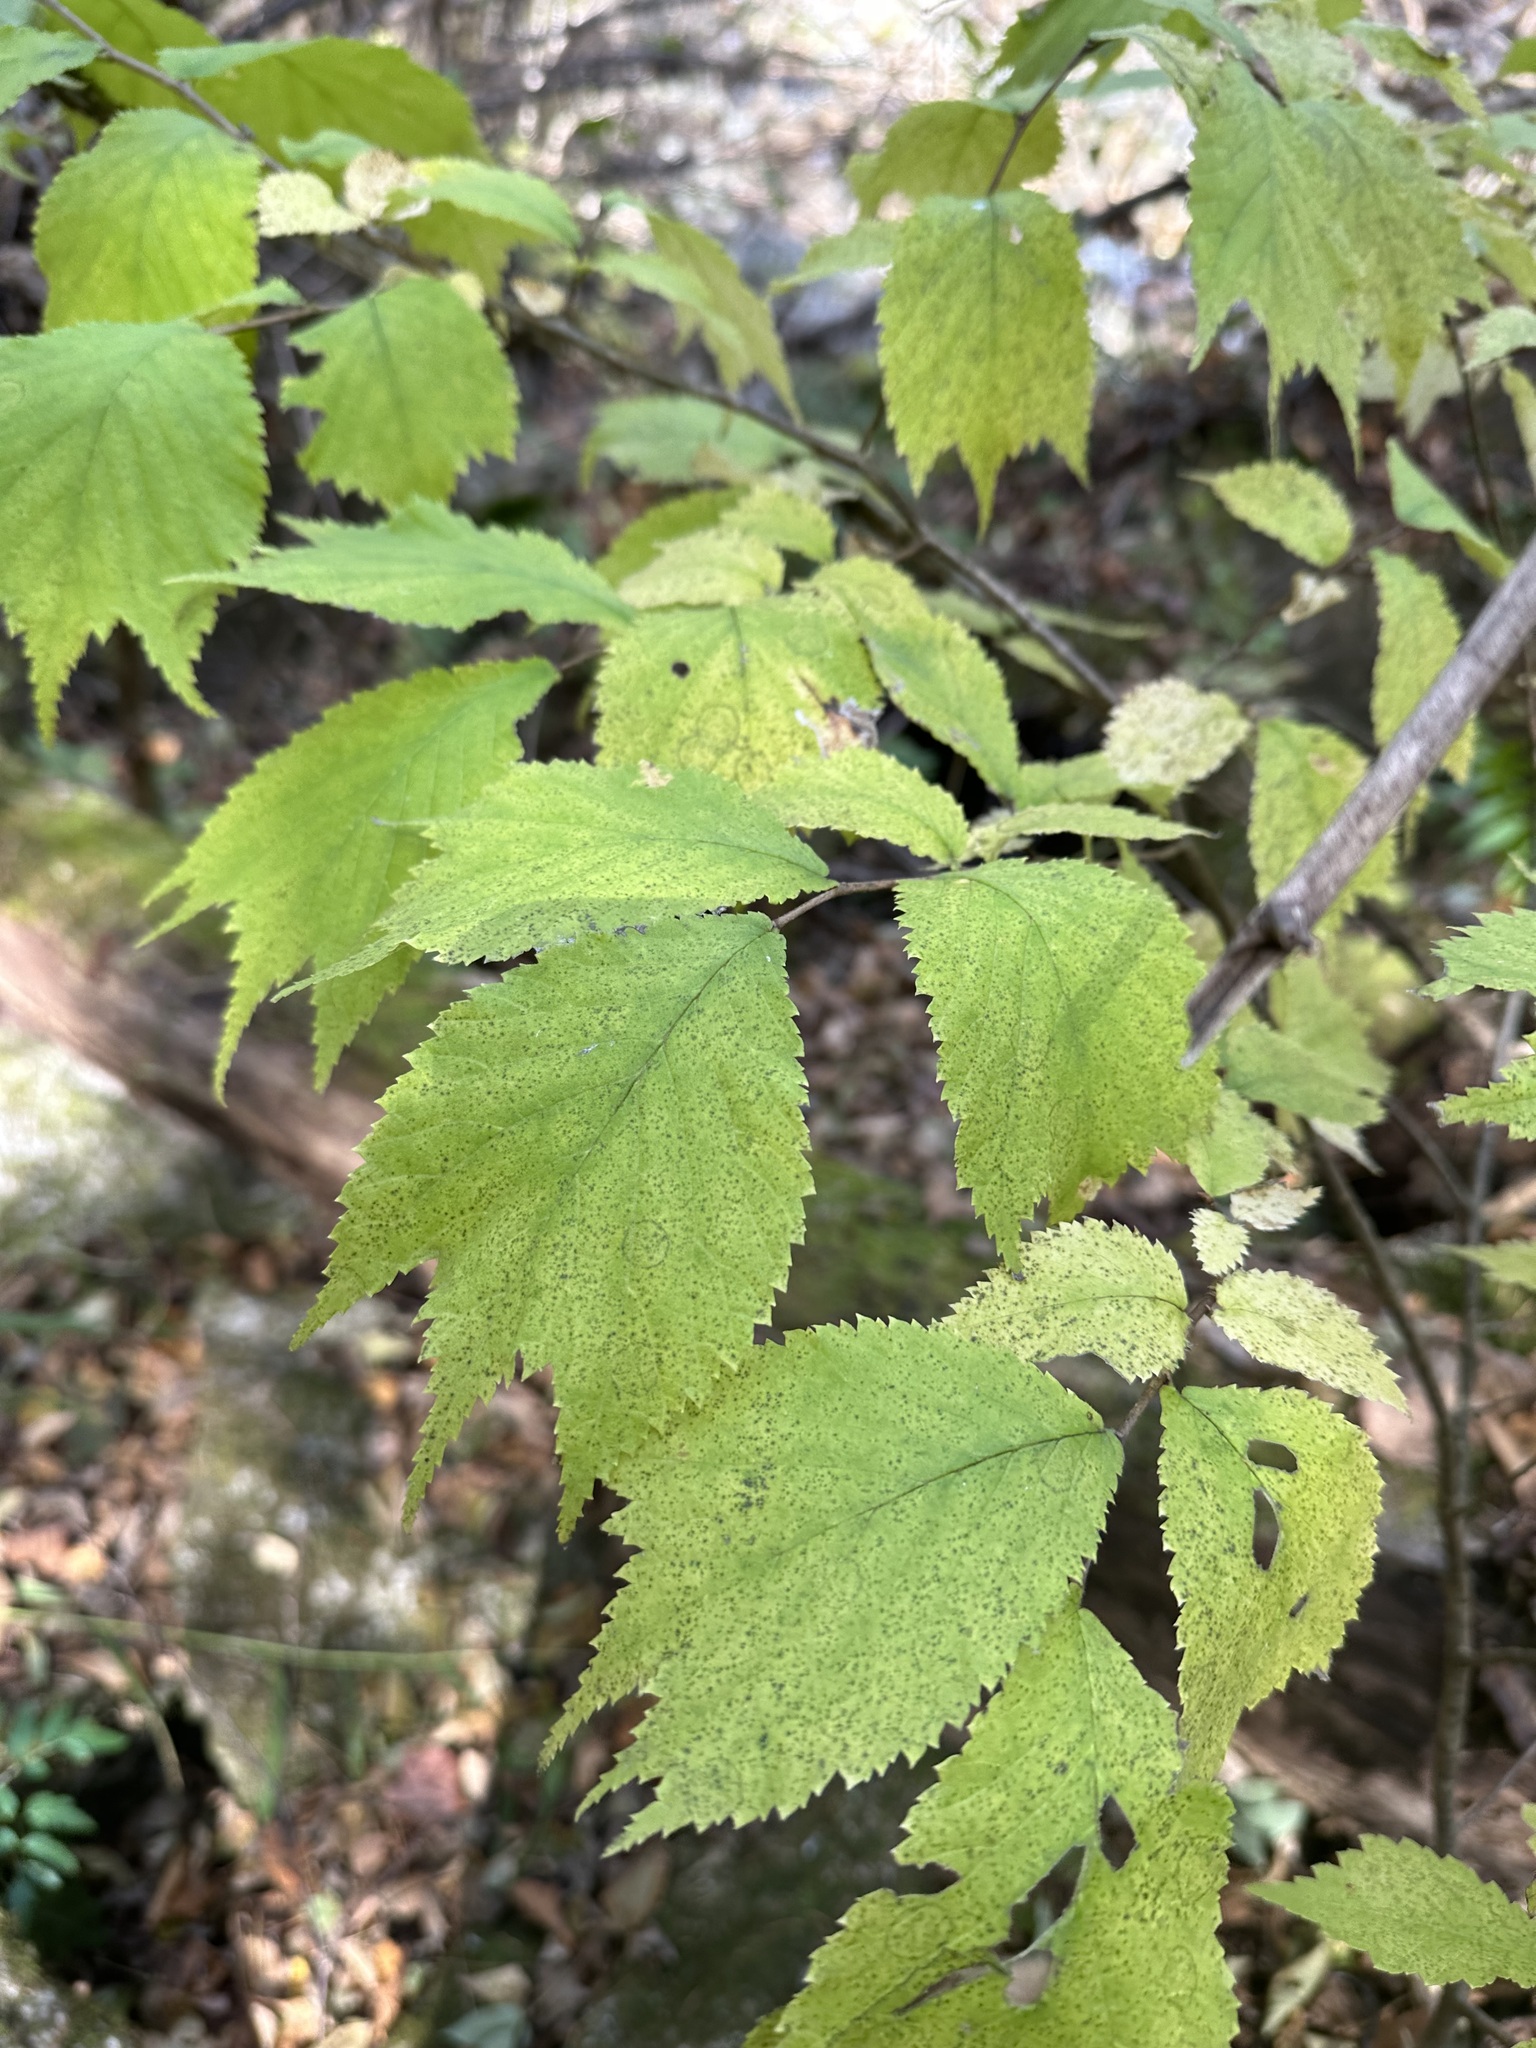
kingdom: Plantae
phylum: Tracheophyta
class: Magnoliopsida
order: Rosales
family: Ulmaceae
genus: Ulmus
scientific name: Ulmus laciniata
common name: Japanese elm
